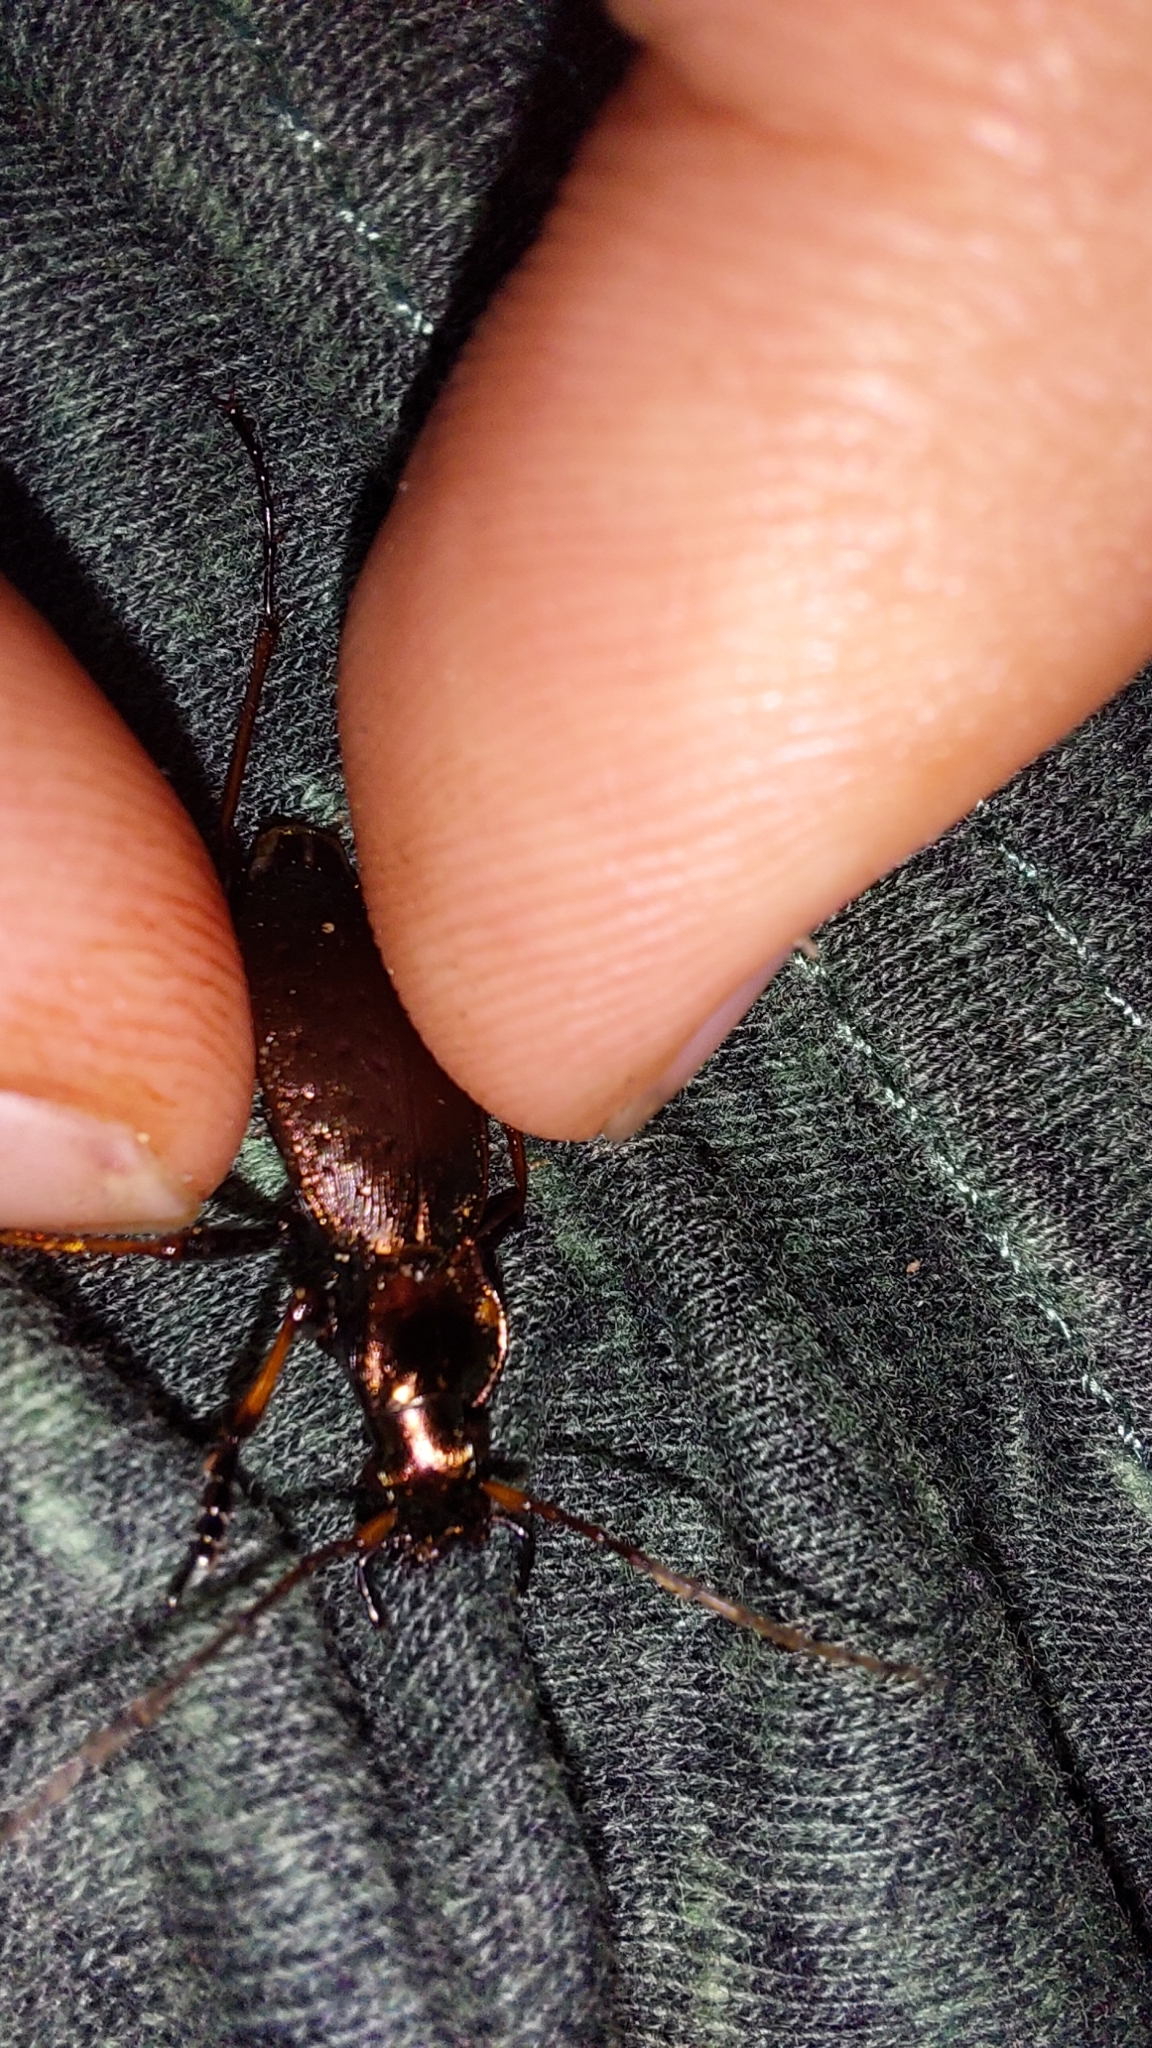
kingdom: Animalia
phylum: Arthropoda
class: Insecta
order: Coleoptera
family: Carabidae
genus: Carabus
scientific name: Carabus linnaei
